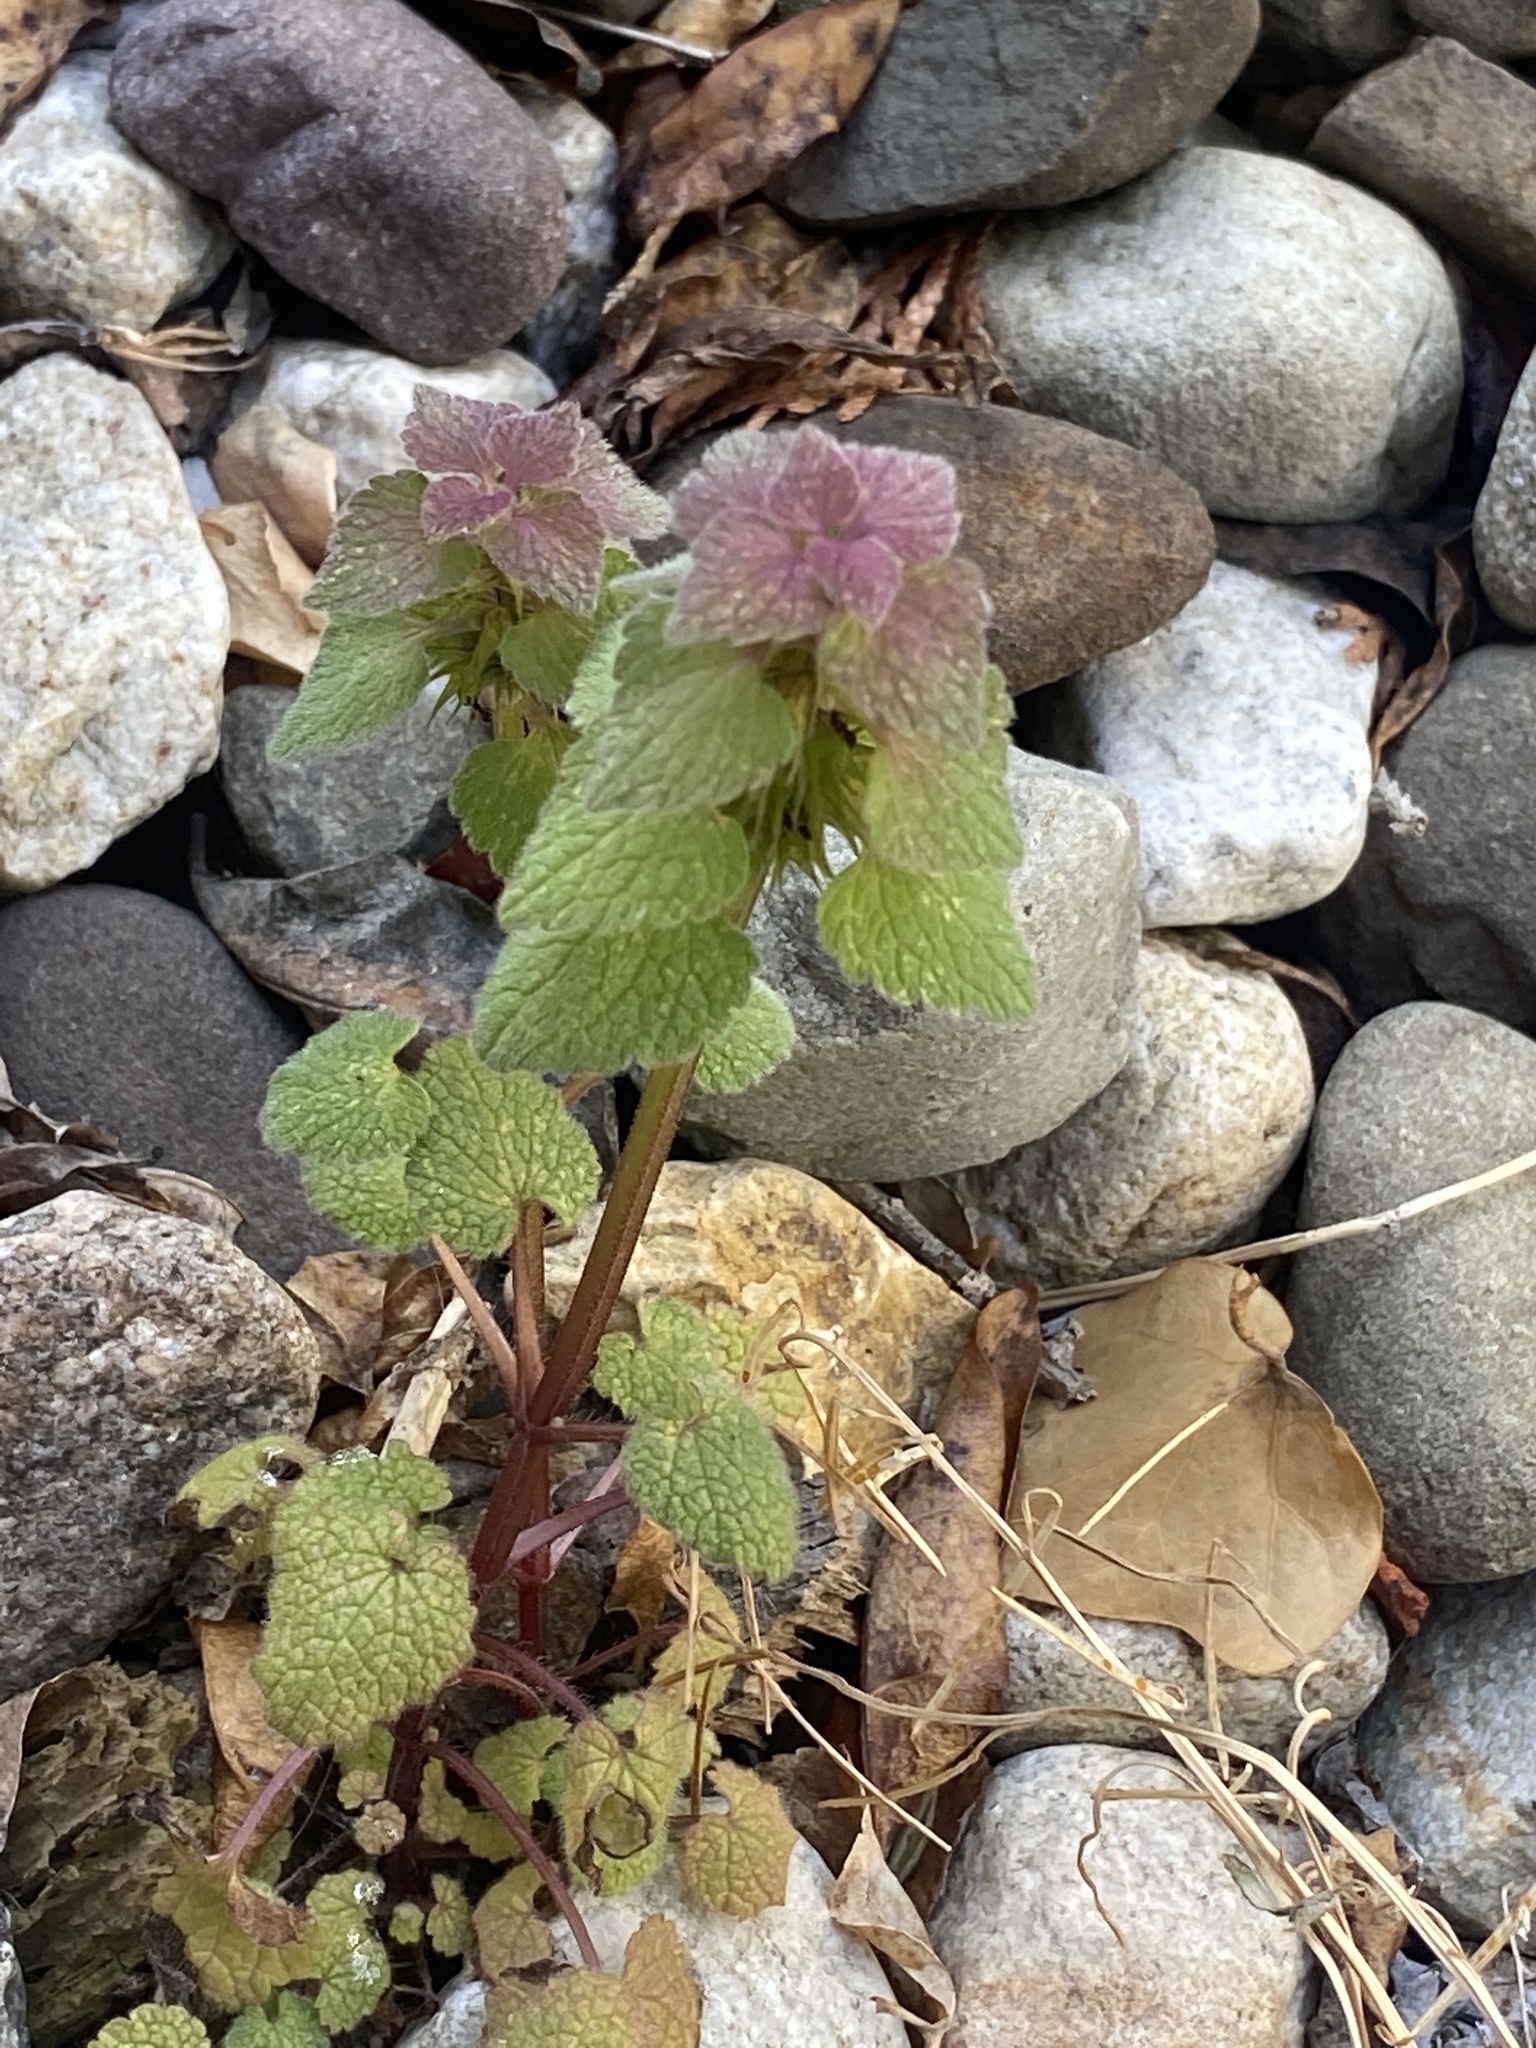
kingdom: Plantae
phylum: Tracheophyta
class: Magnoliopsida
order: Lamiales
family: Lamiaceae
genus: Lamium
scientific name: Lamium purpureum
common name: Red dead-nettle
